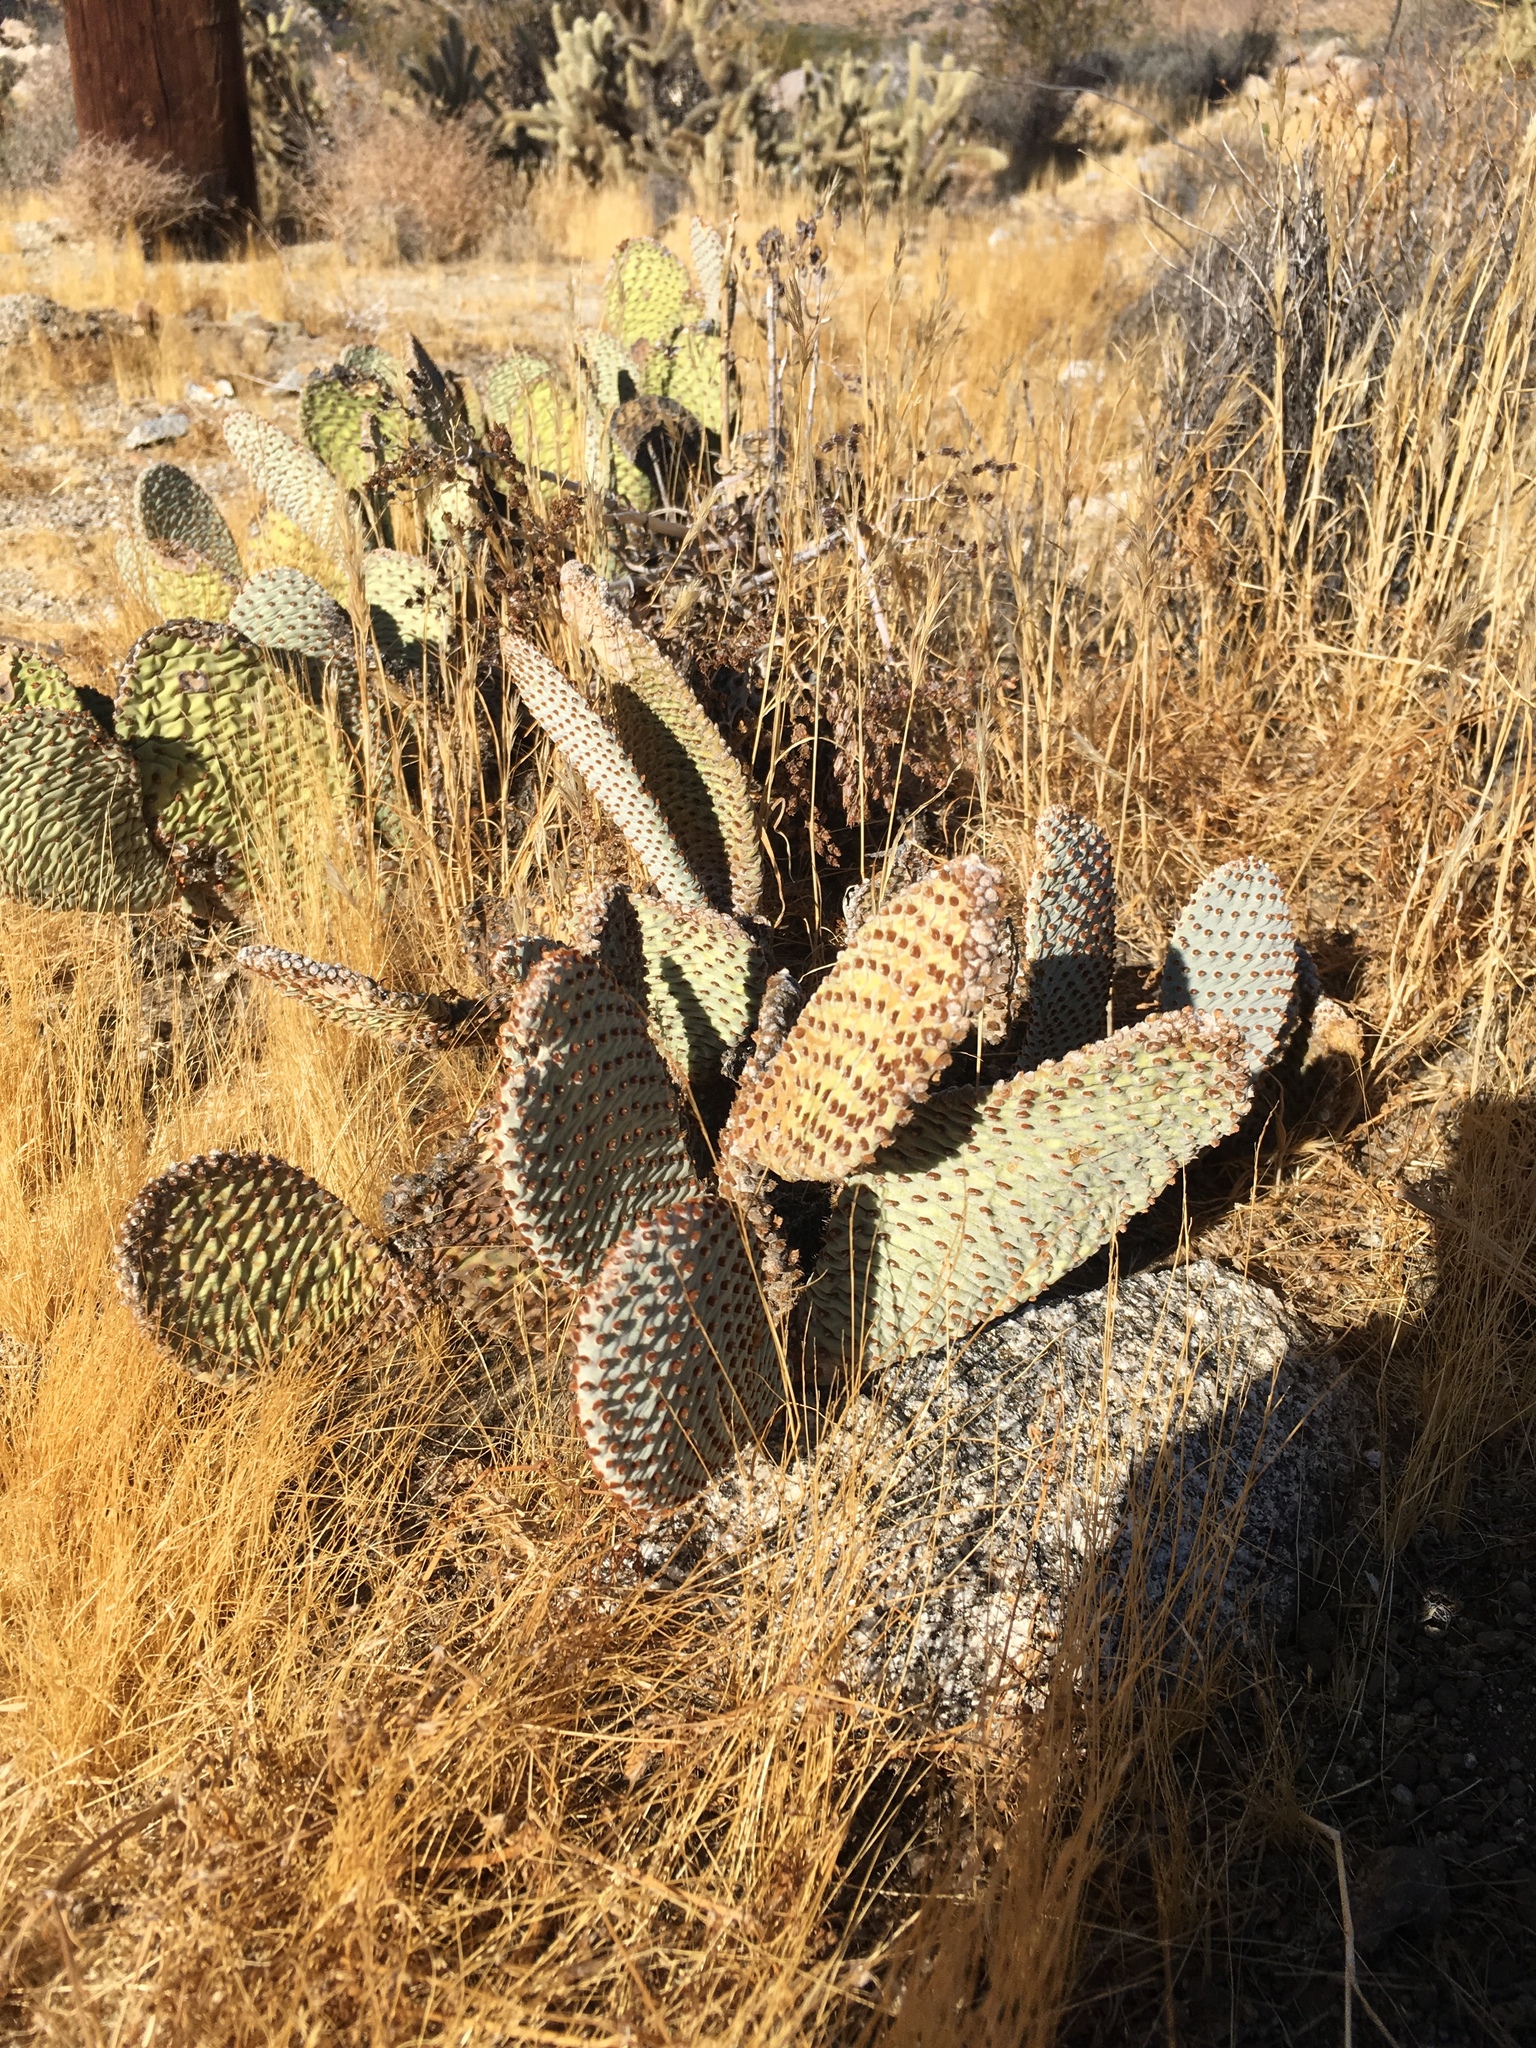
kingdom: Plantae
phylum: Tracheophyta
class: Magnoliopsida
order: Caryophyllales
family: Cactaceae
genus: Opuntia
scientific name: Opuntia basilaris
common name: Beavertail prickly-pear
